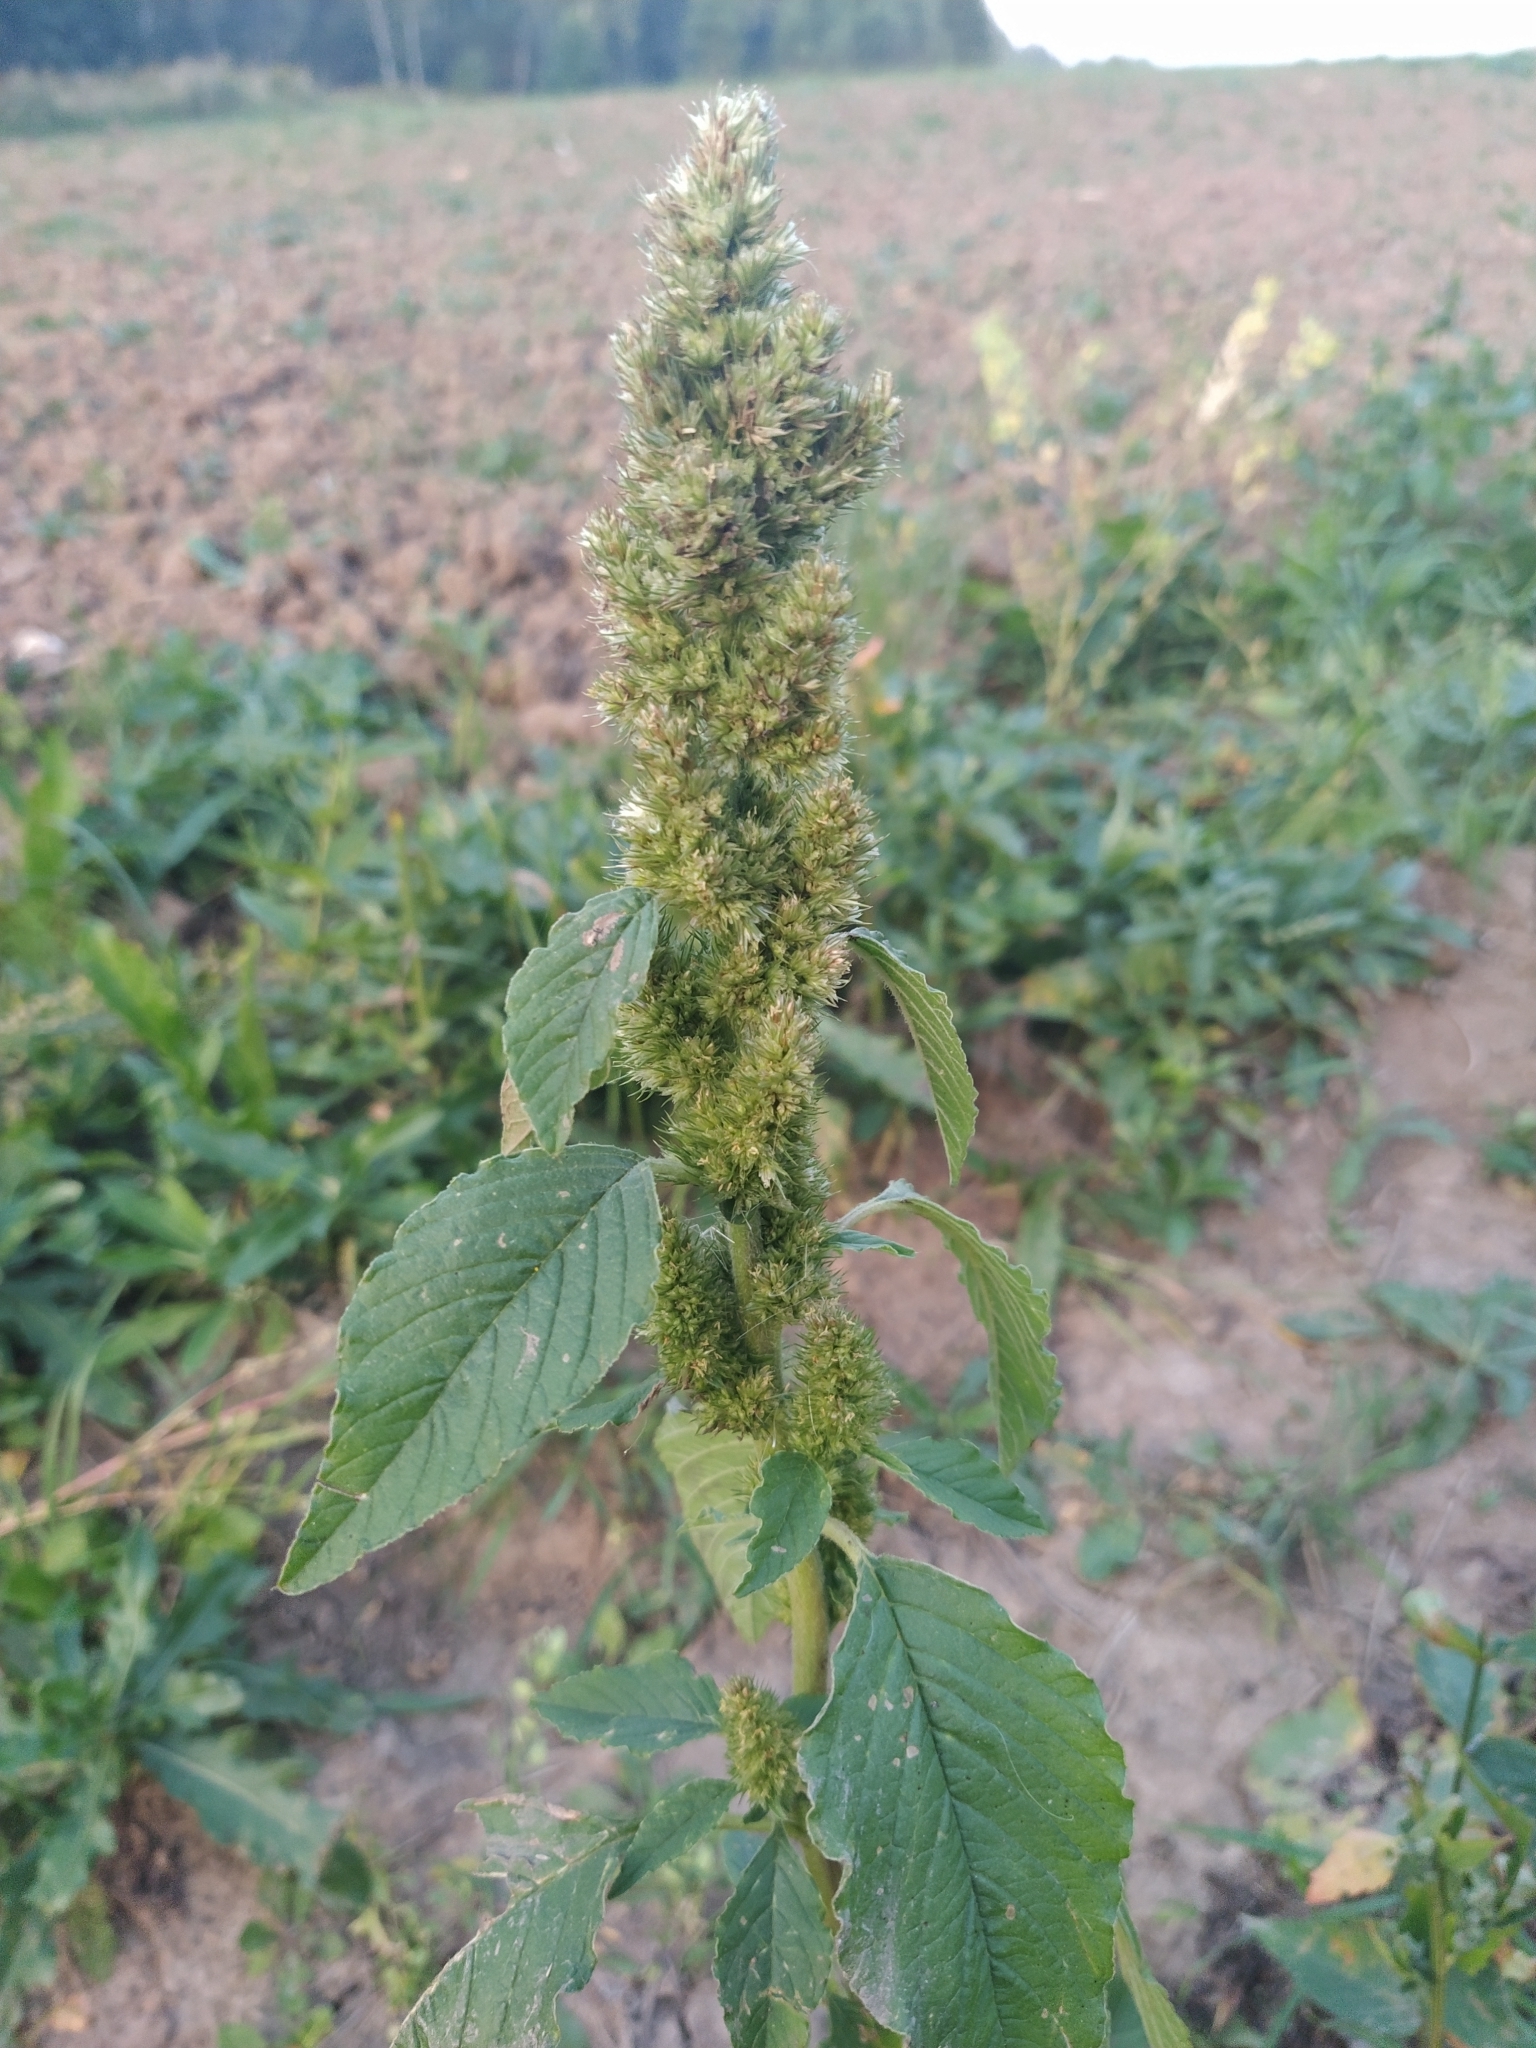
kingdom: Plantae
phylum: Tracheophyta
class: Magnoliopsida
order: Caryophyllales
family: Amaranthaceae
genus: Amaranthus
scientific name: Amaranthus retroflexus
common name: Redroot amaranth
